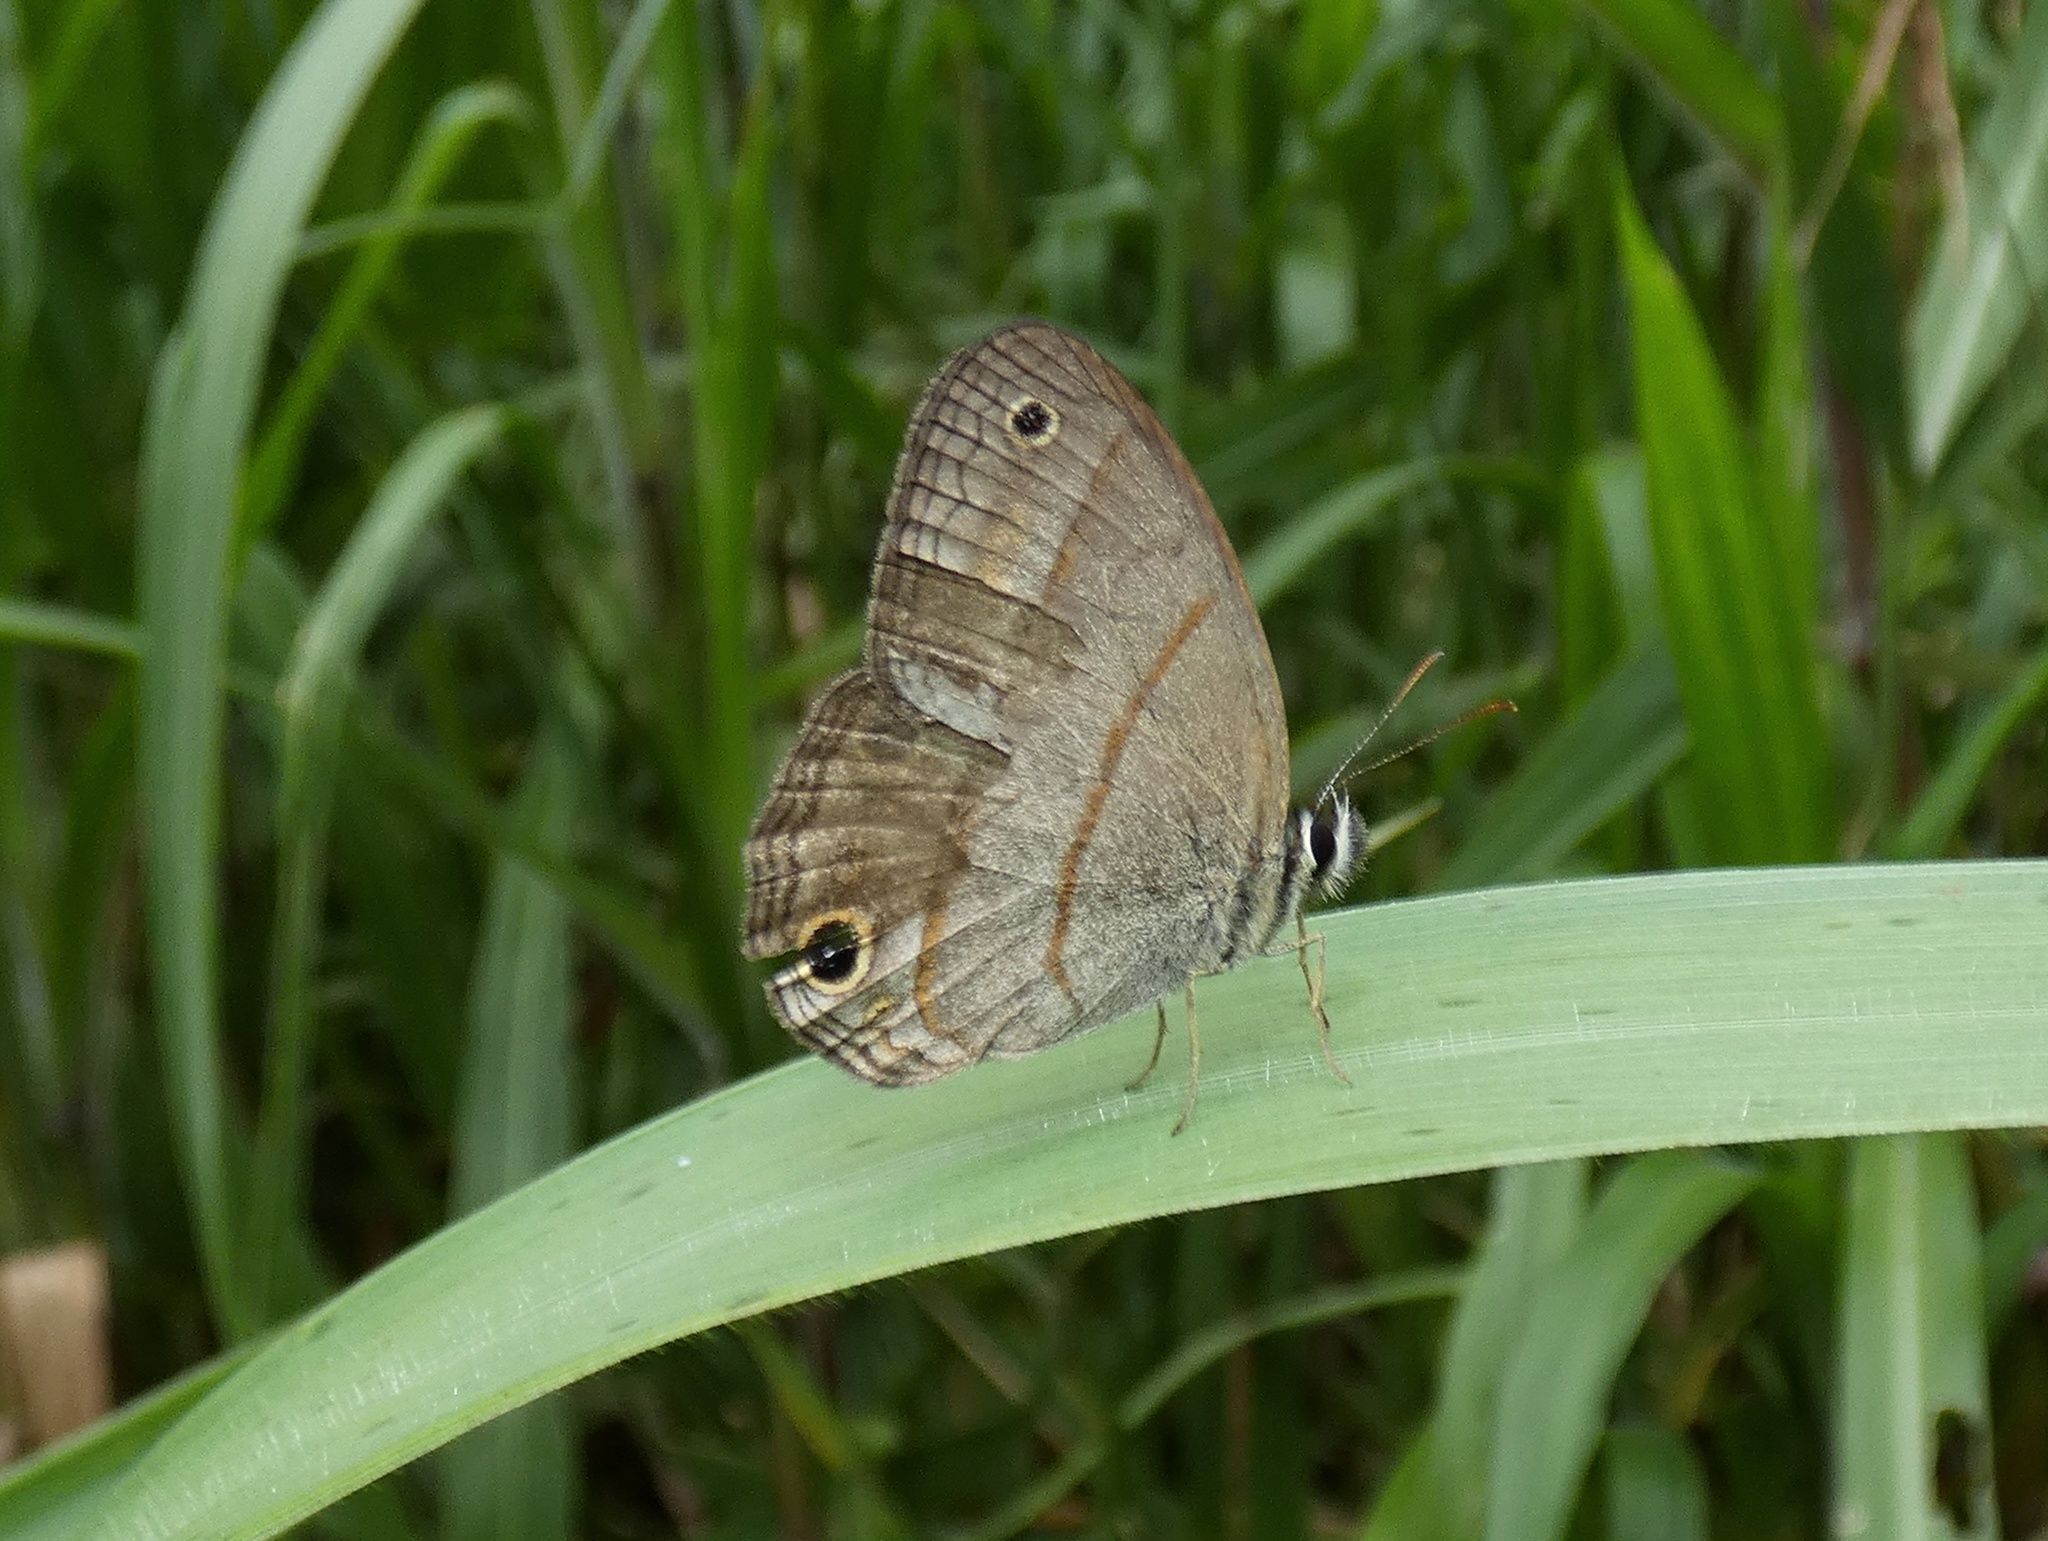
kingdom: Animalia
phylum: Arthropoda
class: Insecta
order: Lepidoptera
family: Nymphalidae
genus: Euptychia
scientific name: Euptychia Cissia pompilia
